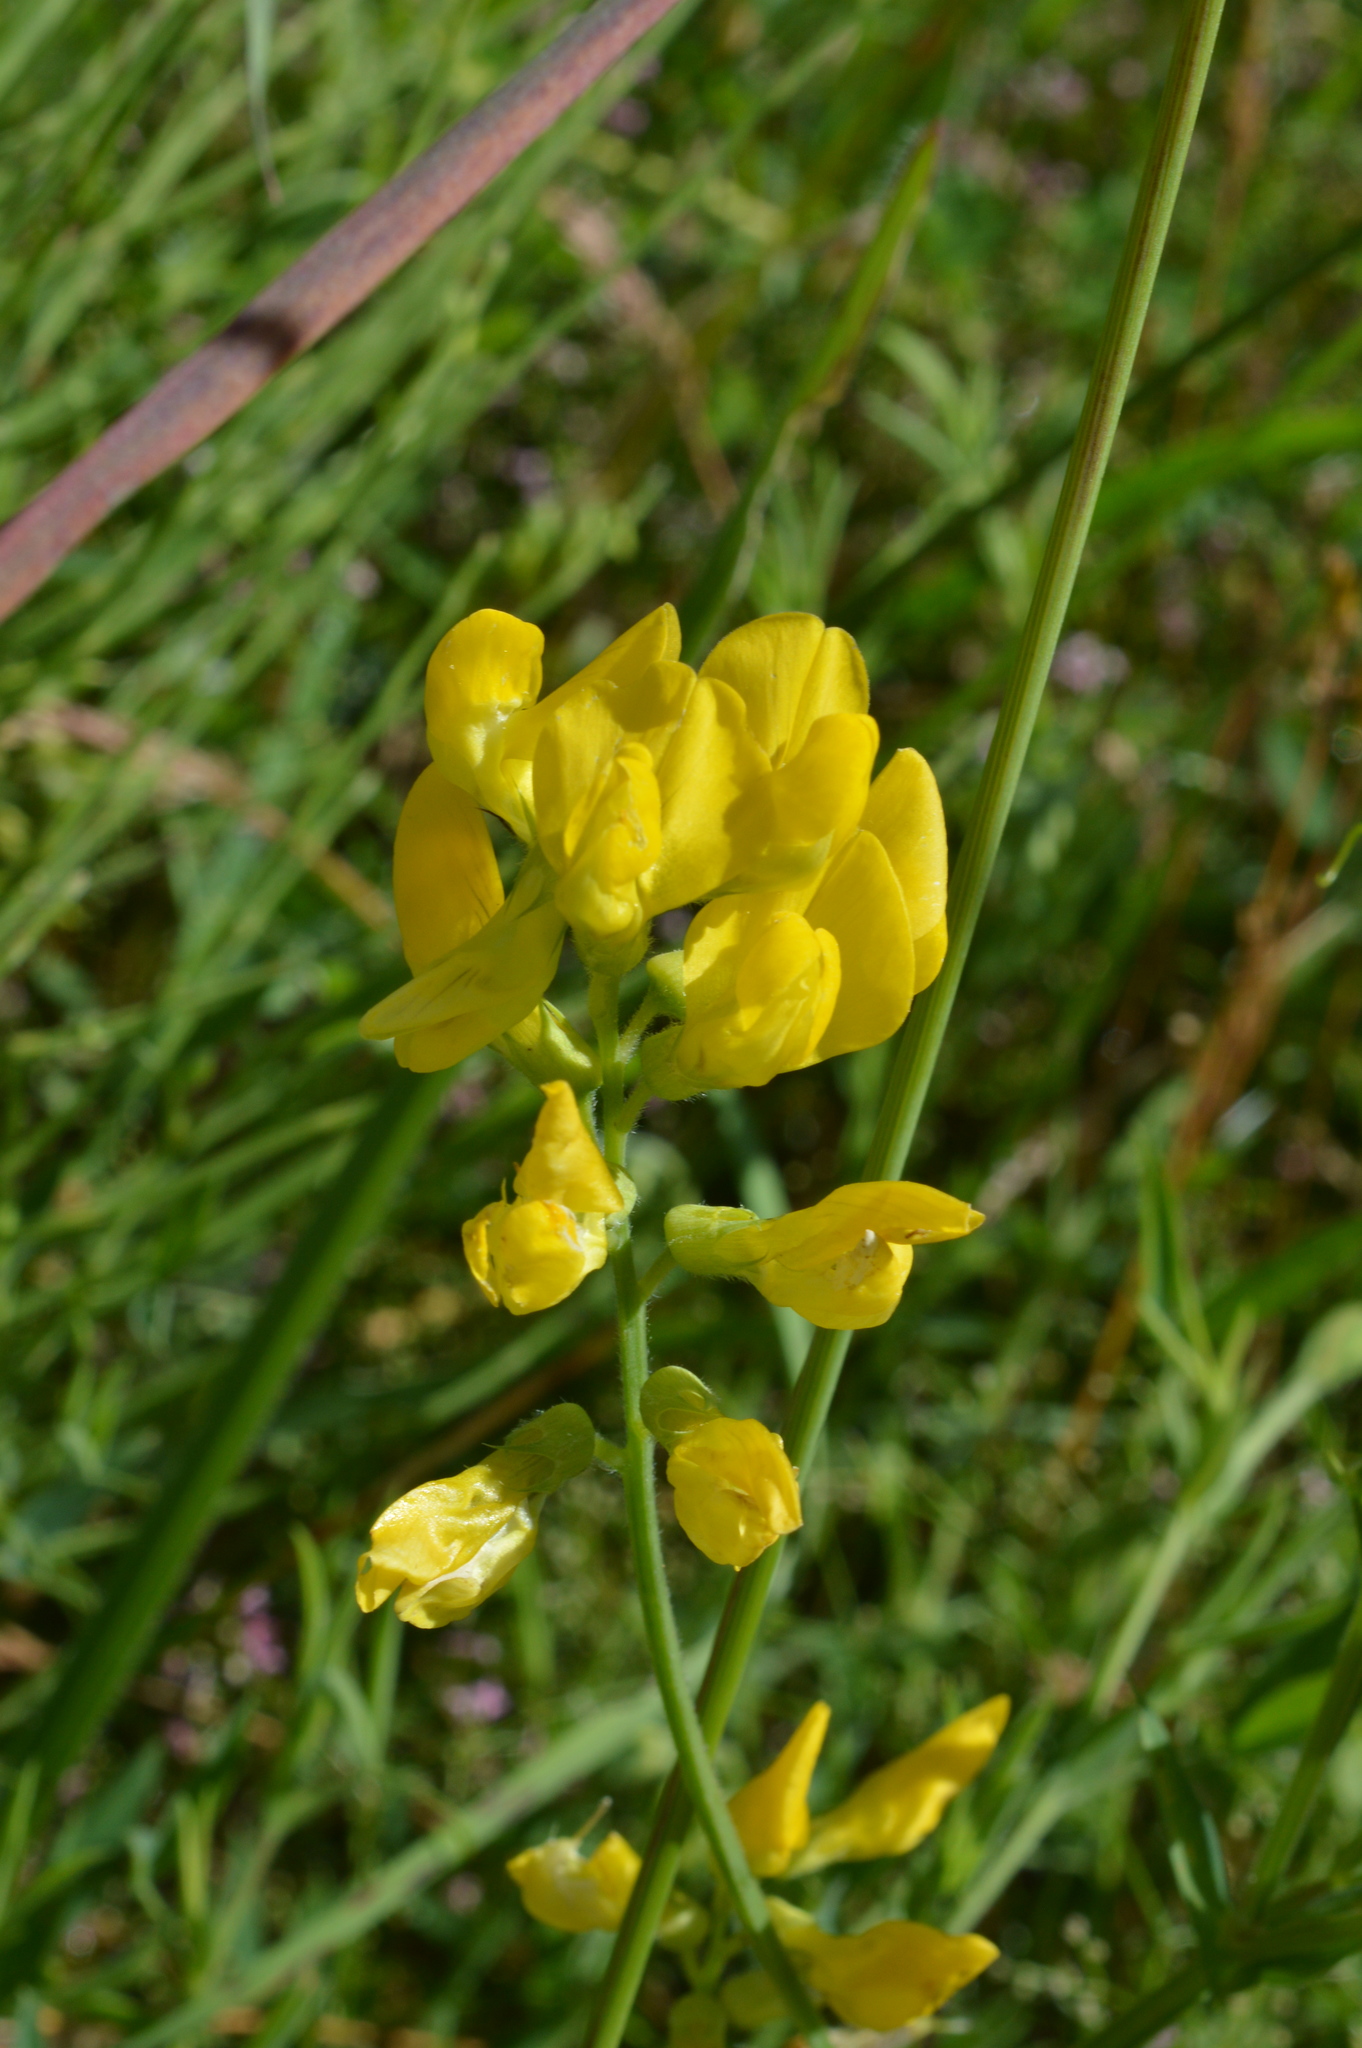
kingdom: Plantae
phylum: Tracheophyta
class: Magnoliopsida
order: Fabales
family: Fabaceae
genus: Lathyrus
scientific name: Lathyrus pratensis
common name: Meadow vetchling
